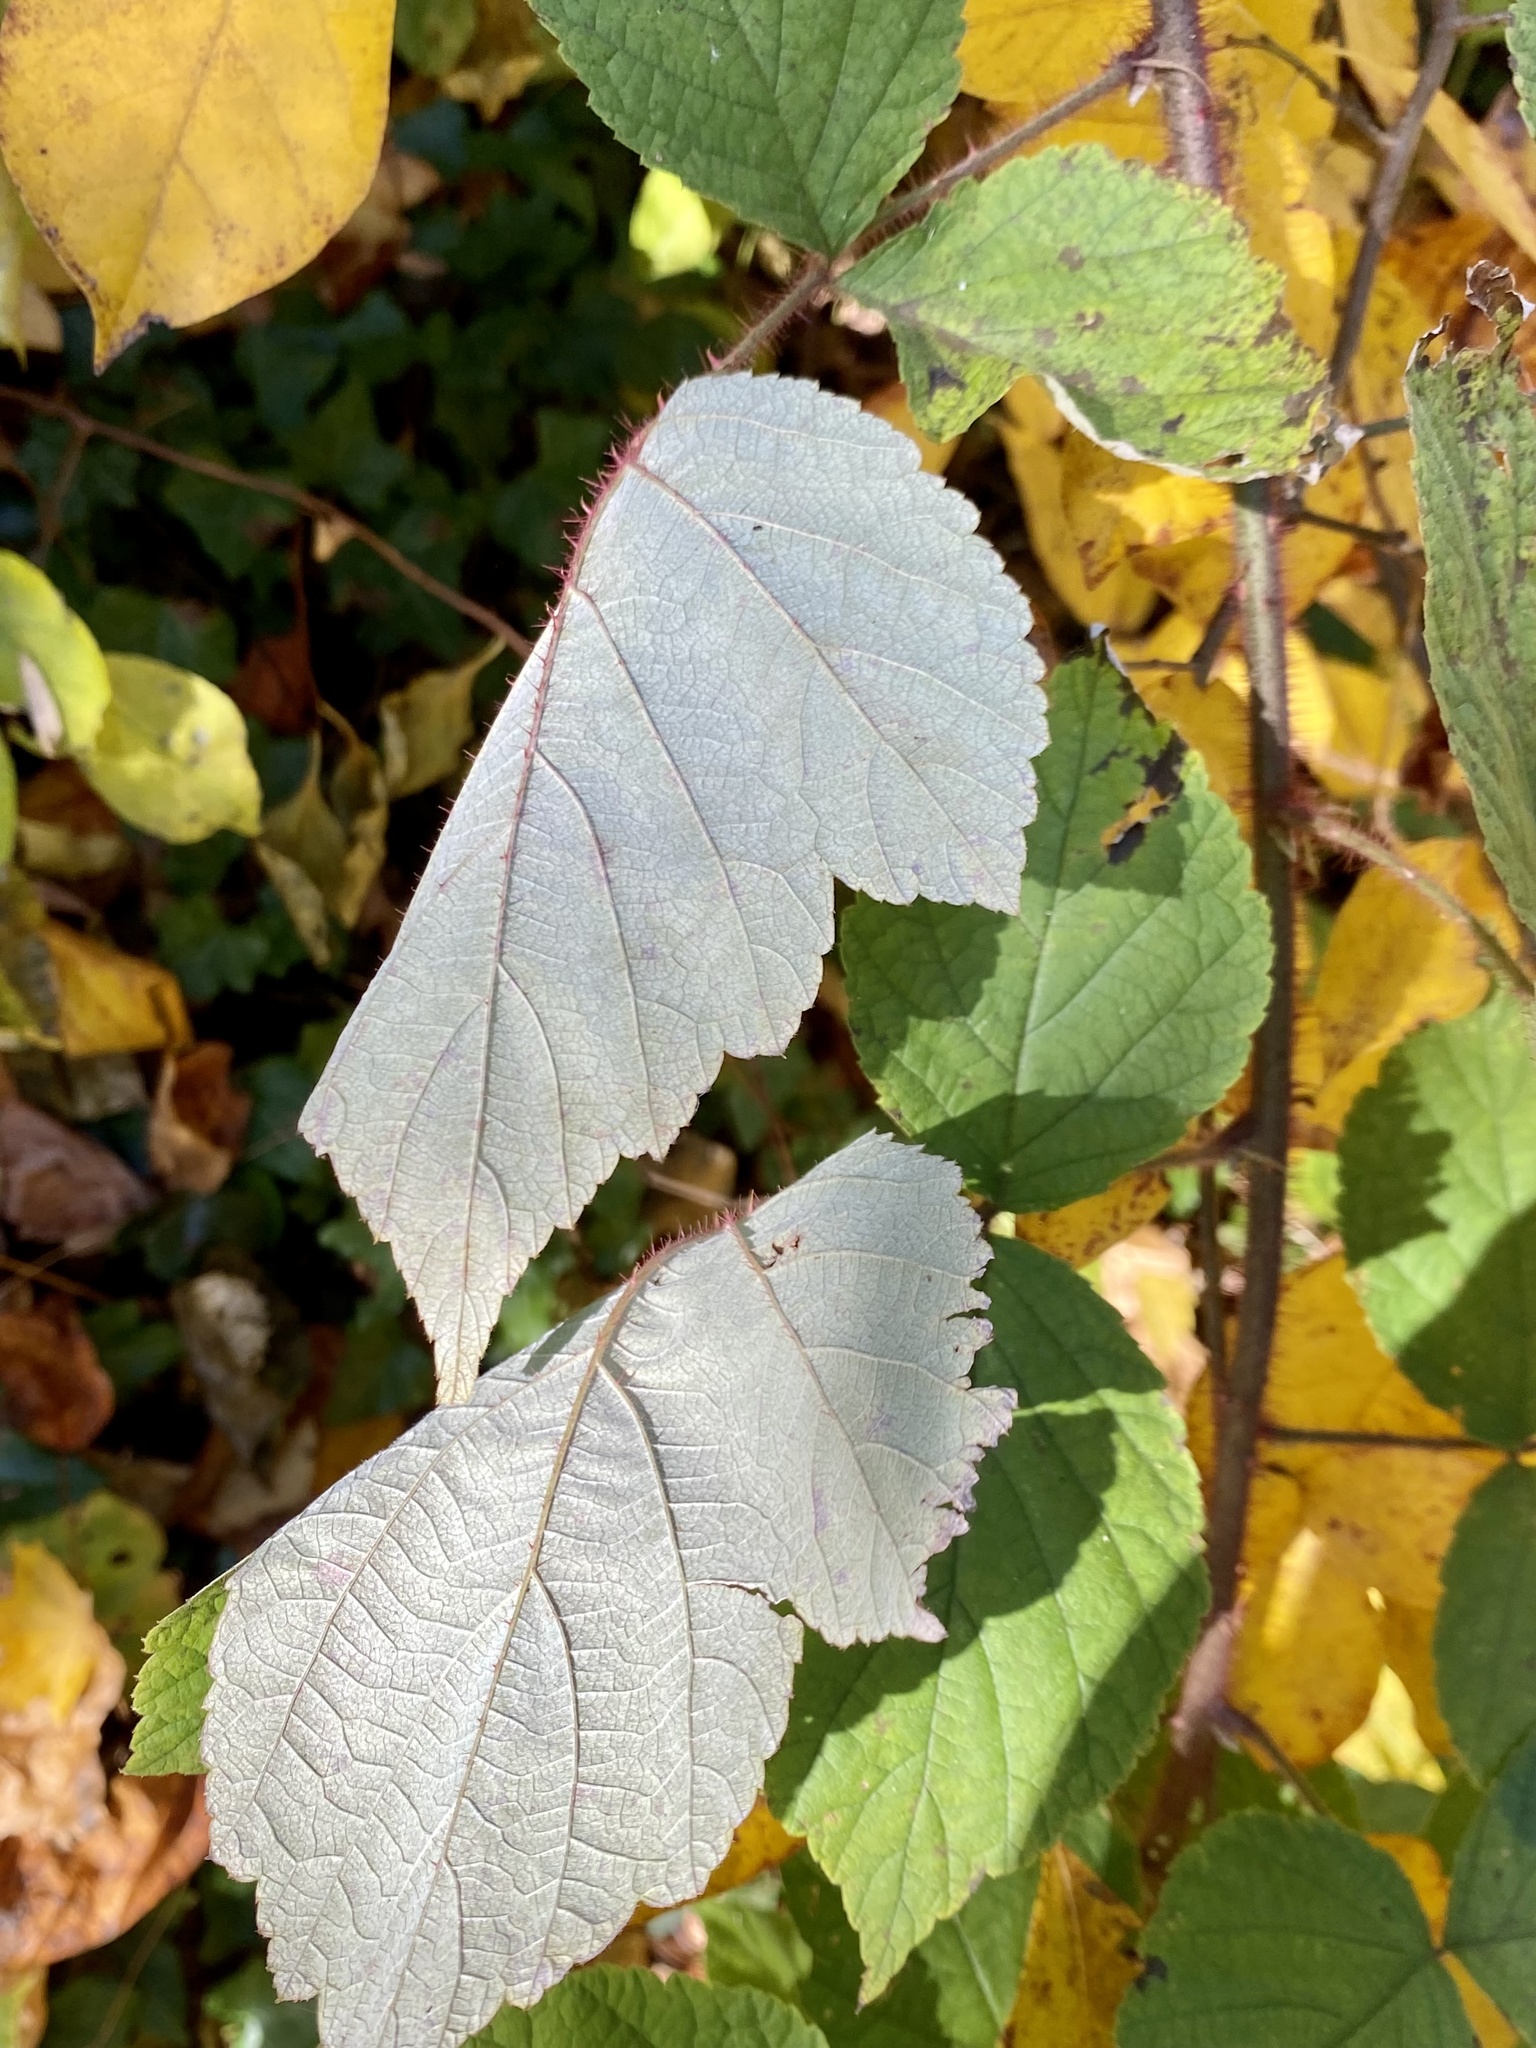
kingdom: Plantae
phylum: Tracheophyta
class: Magnoliopsida
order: Rosales
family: Rosaceae
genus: Rubus
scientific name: Rubus phoenicolasius
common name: Japanese wineberry
